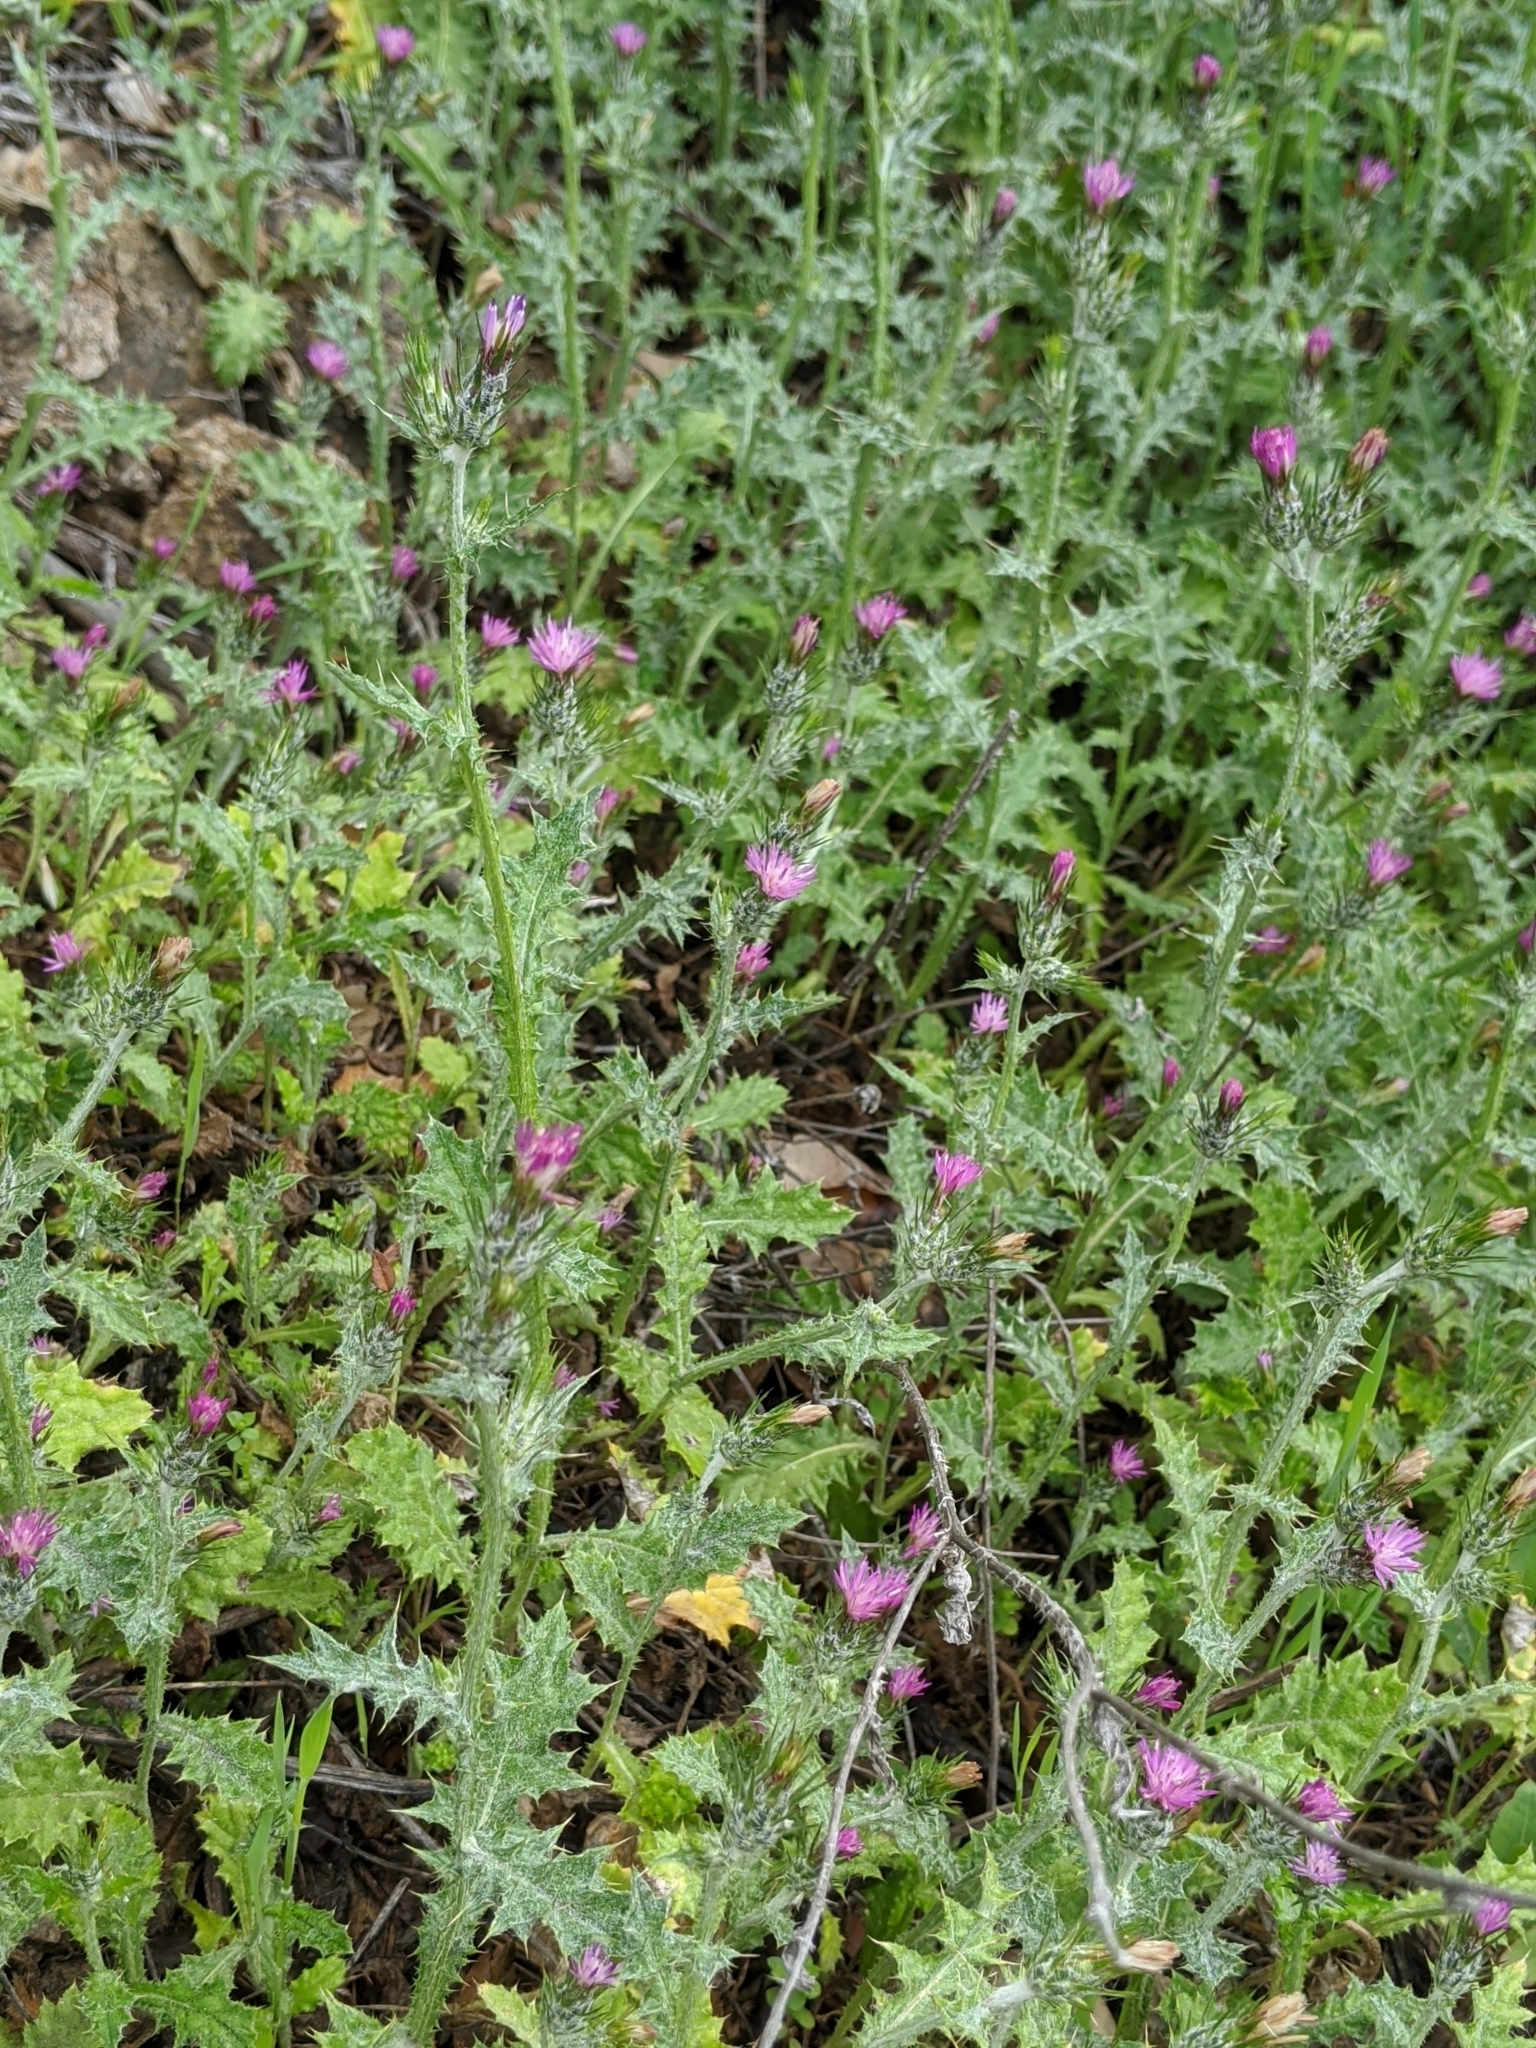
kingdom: Plantae
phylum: Tracheophyta
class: Magnoliopsida
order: Asterales
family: Asteraceae
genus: Carduus
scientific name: Carduus pycnocephalus
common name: Plymouth thistle
